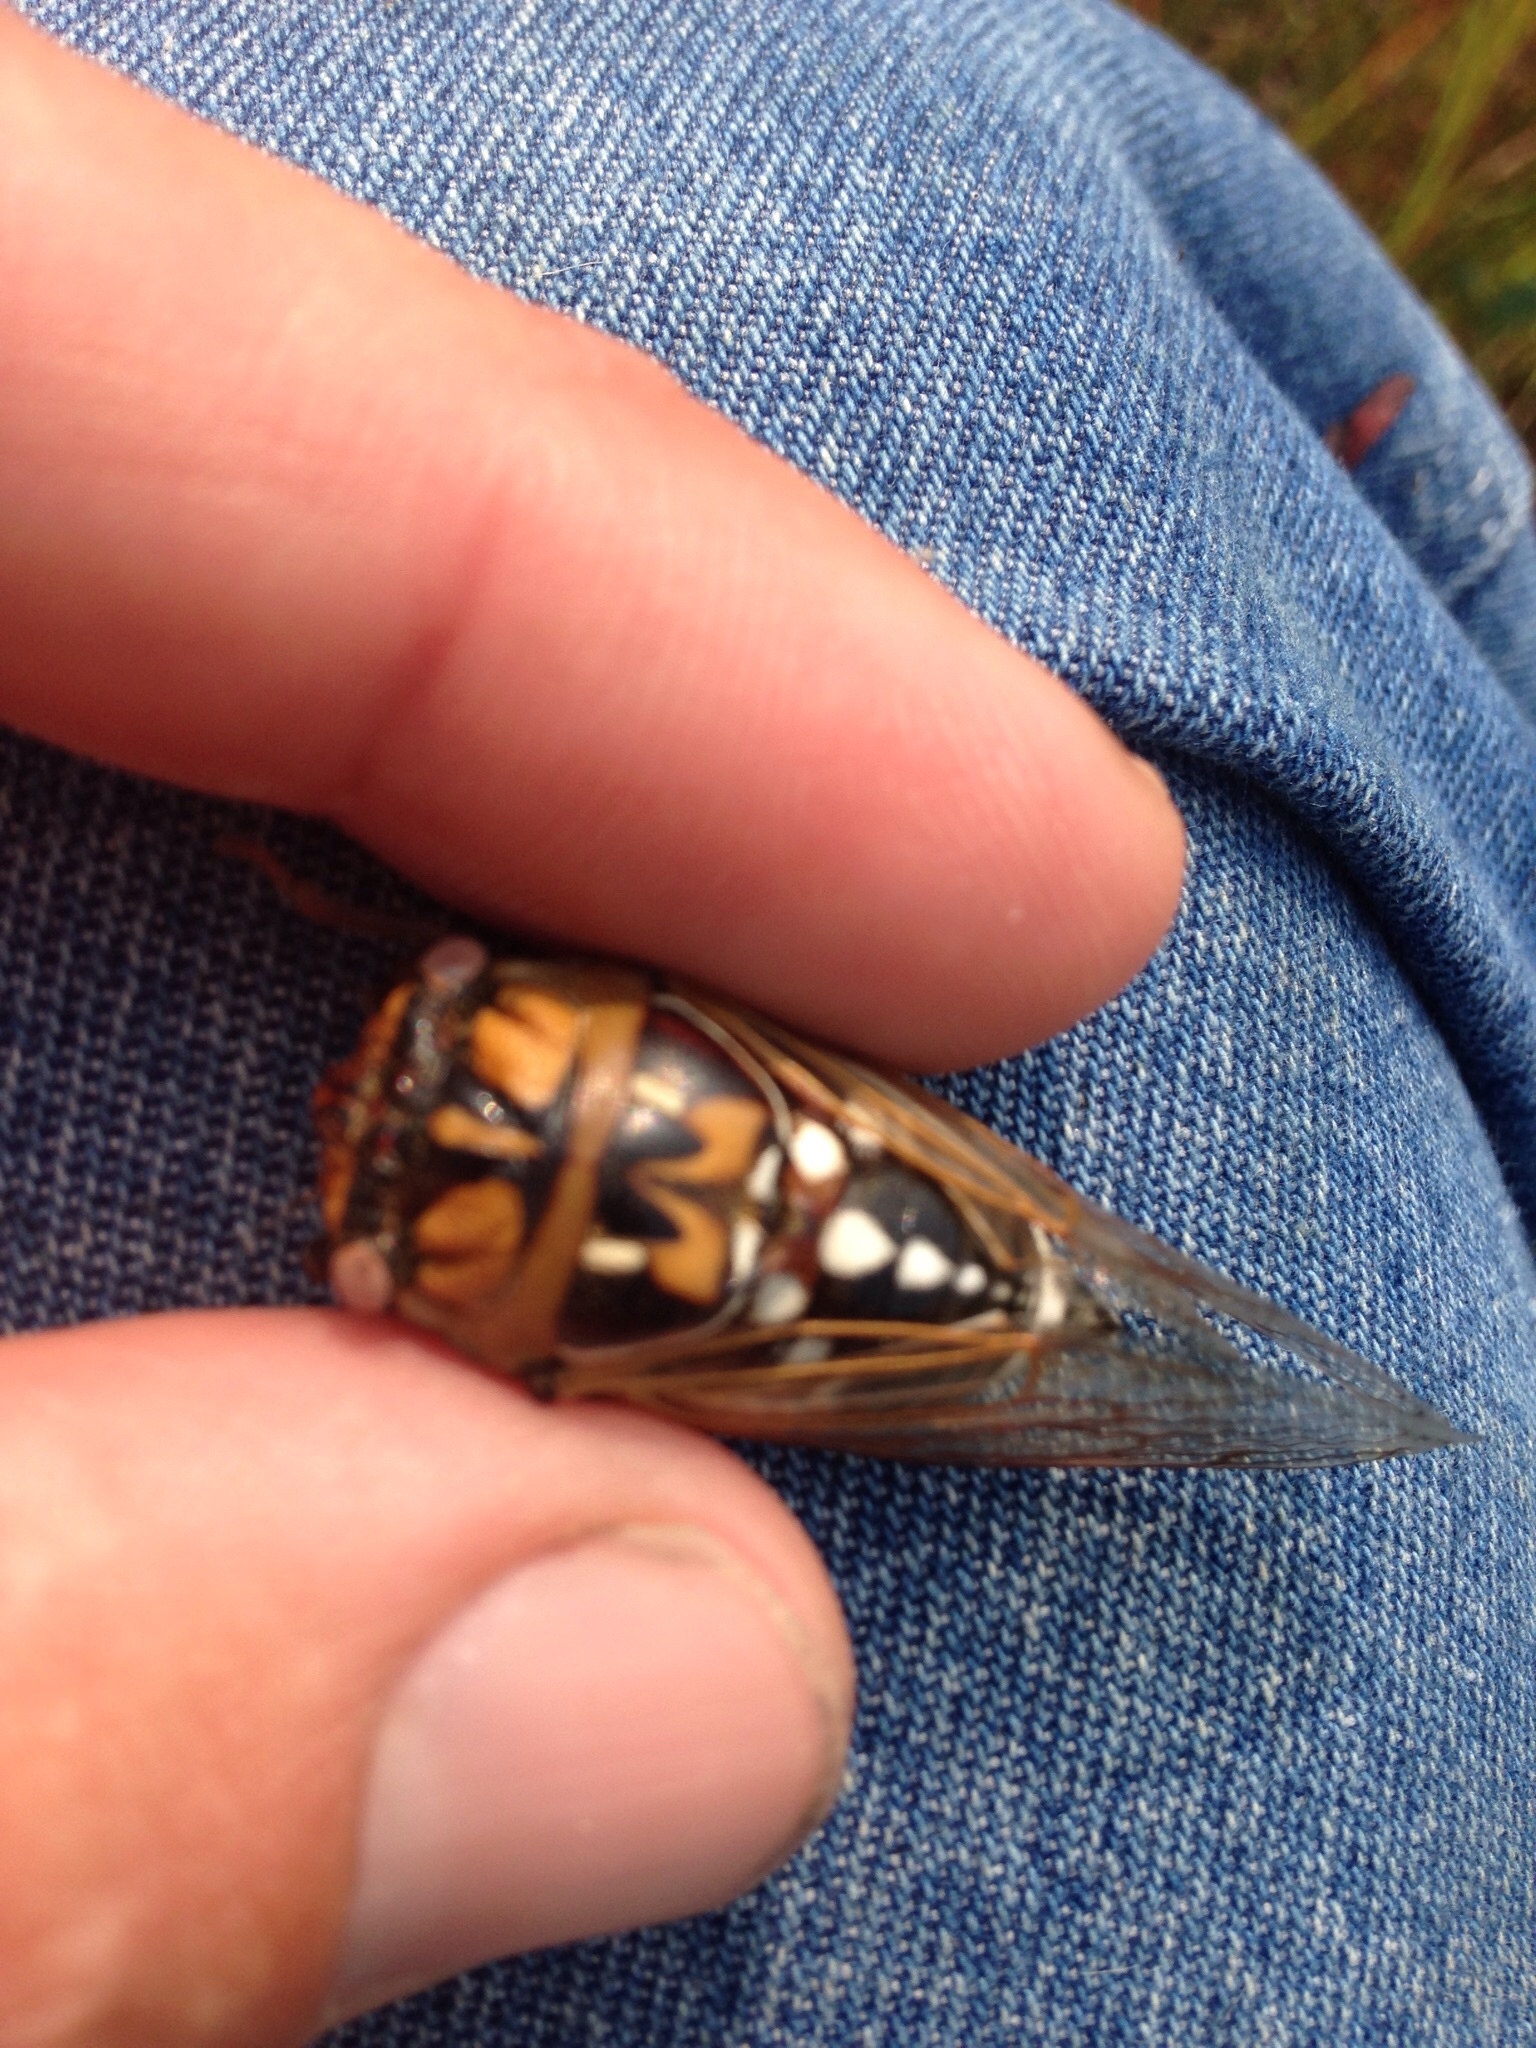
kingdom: Animalia
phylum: Arthropoda
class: Insecta
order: Hemiptera
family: Cicadidae
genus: Megatibicen
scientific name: Megatibicen dorsatus
